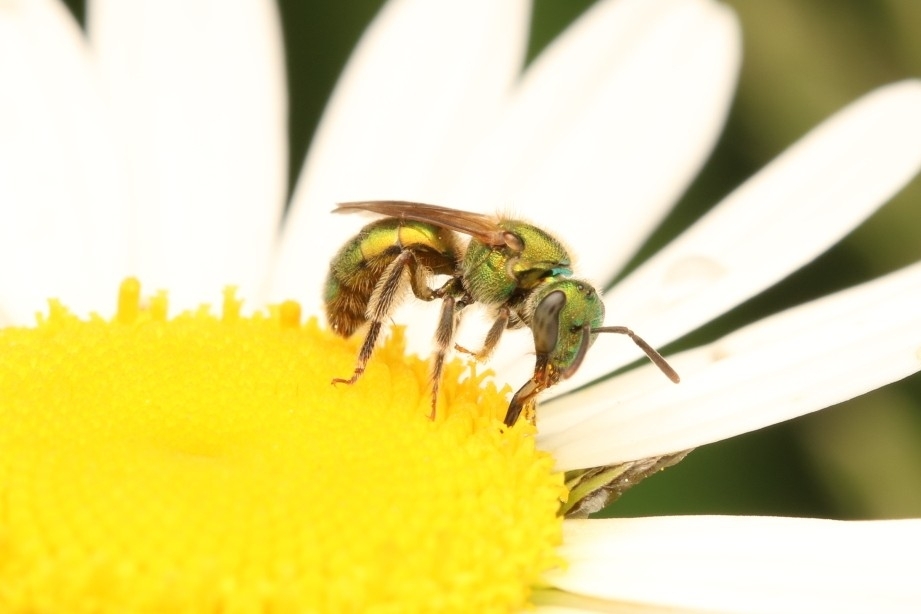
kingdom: Animalia
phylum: Arthropoda
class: Insecta
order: Hymenoptera
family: Halictidae
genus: Augochlorella
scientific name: Augochlorella aurata
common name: Golden sweat bee
